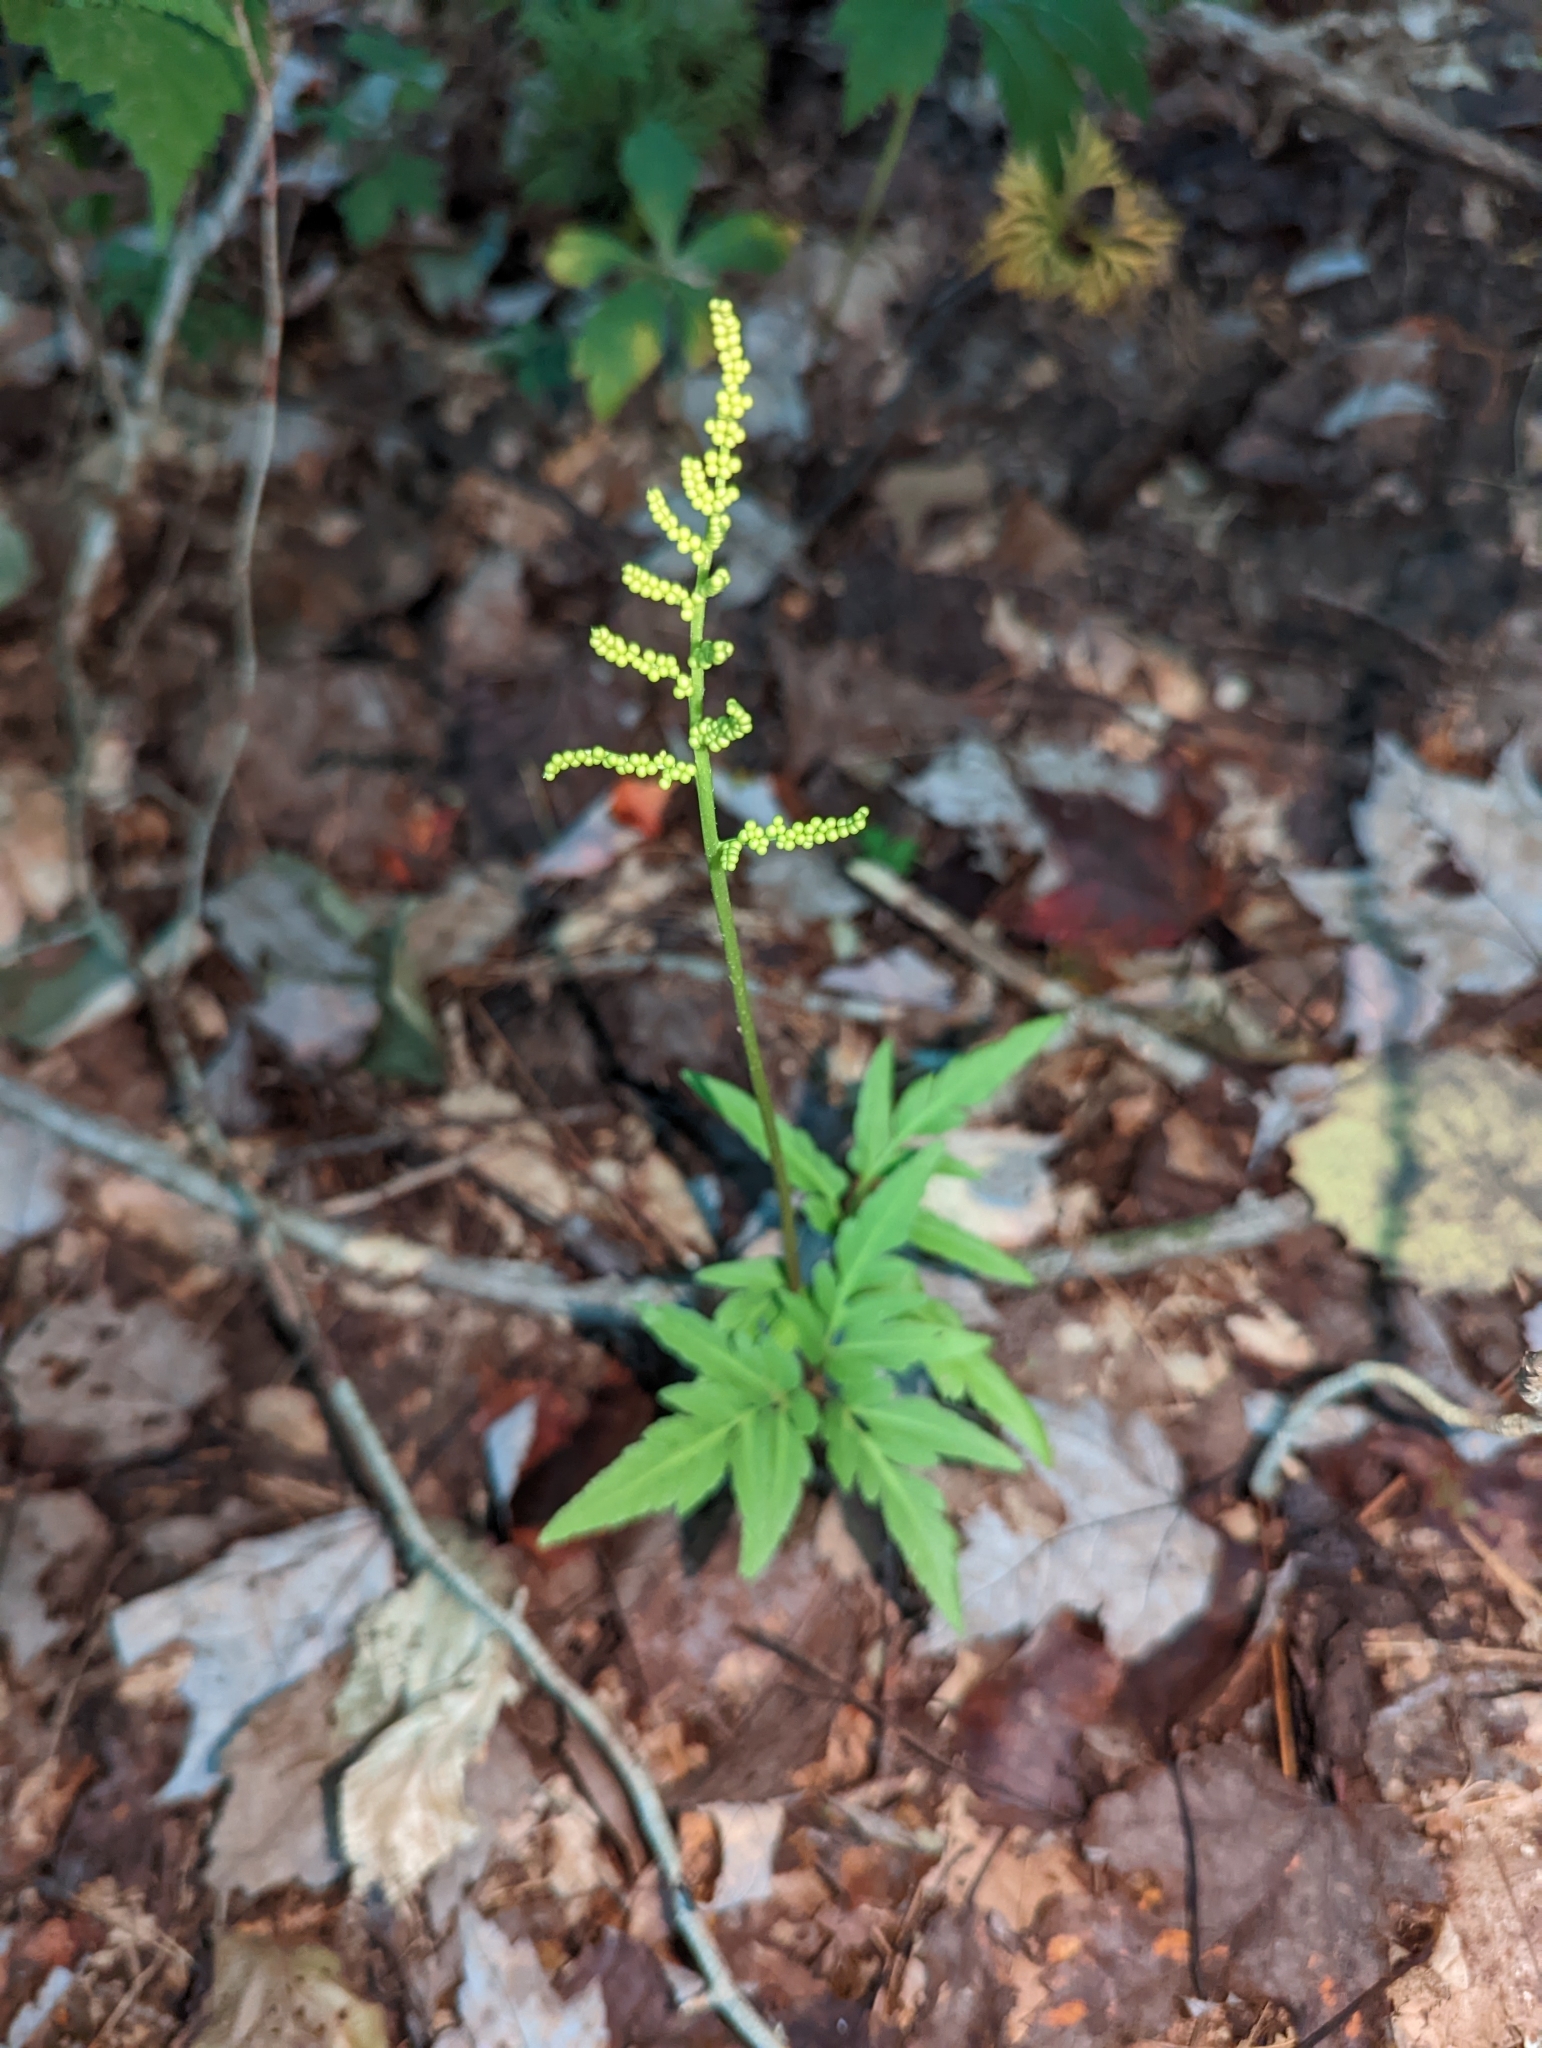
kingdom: Plantae
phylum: Tracheophyta
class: Polypodiopsida
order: Ophioglossales
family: Ophioglossaceae
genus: Sceptridium
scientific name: Sceptridium dissectum
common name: Cut-leaved grapefern
